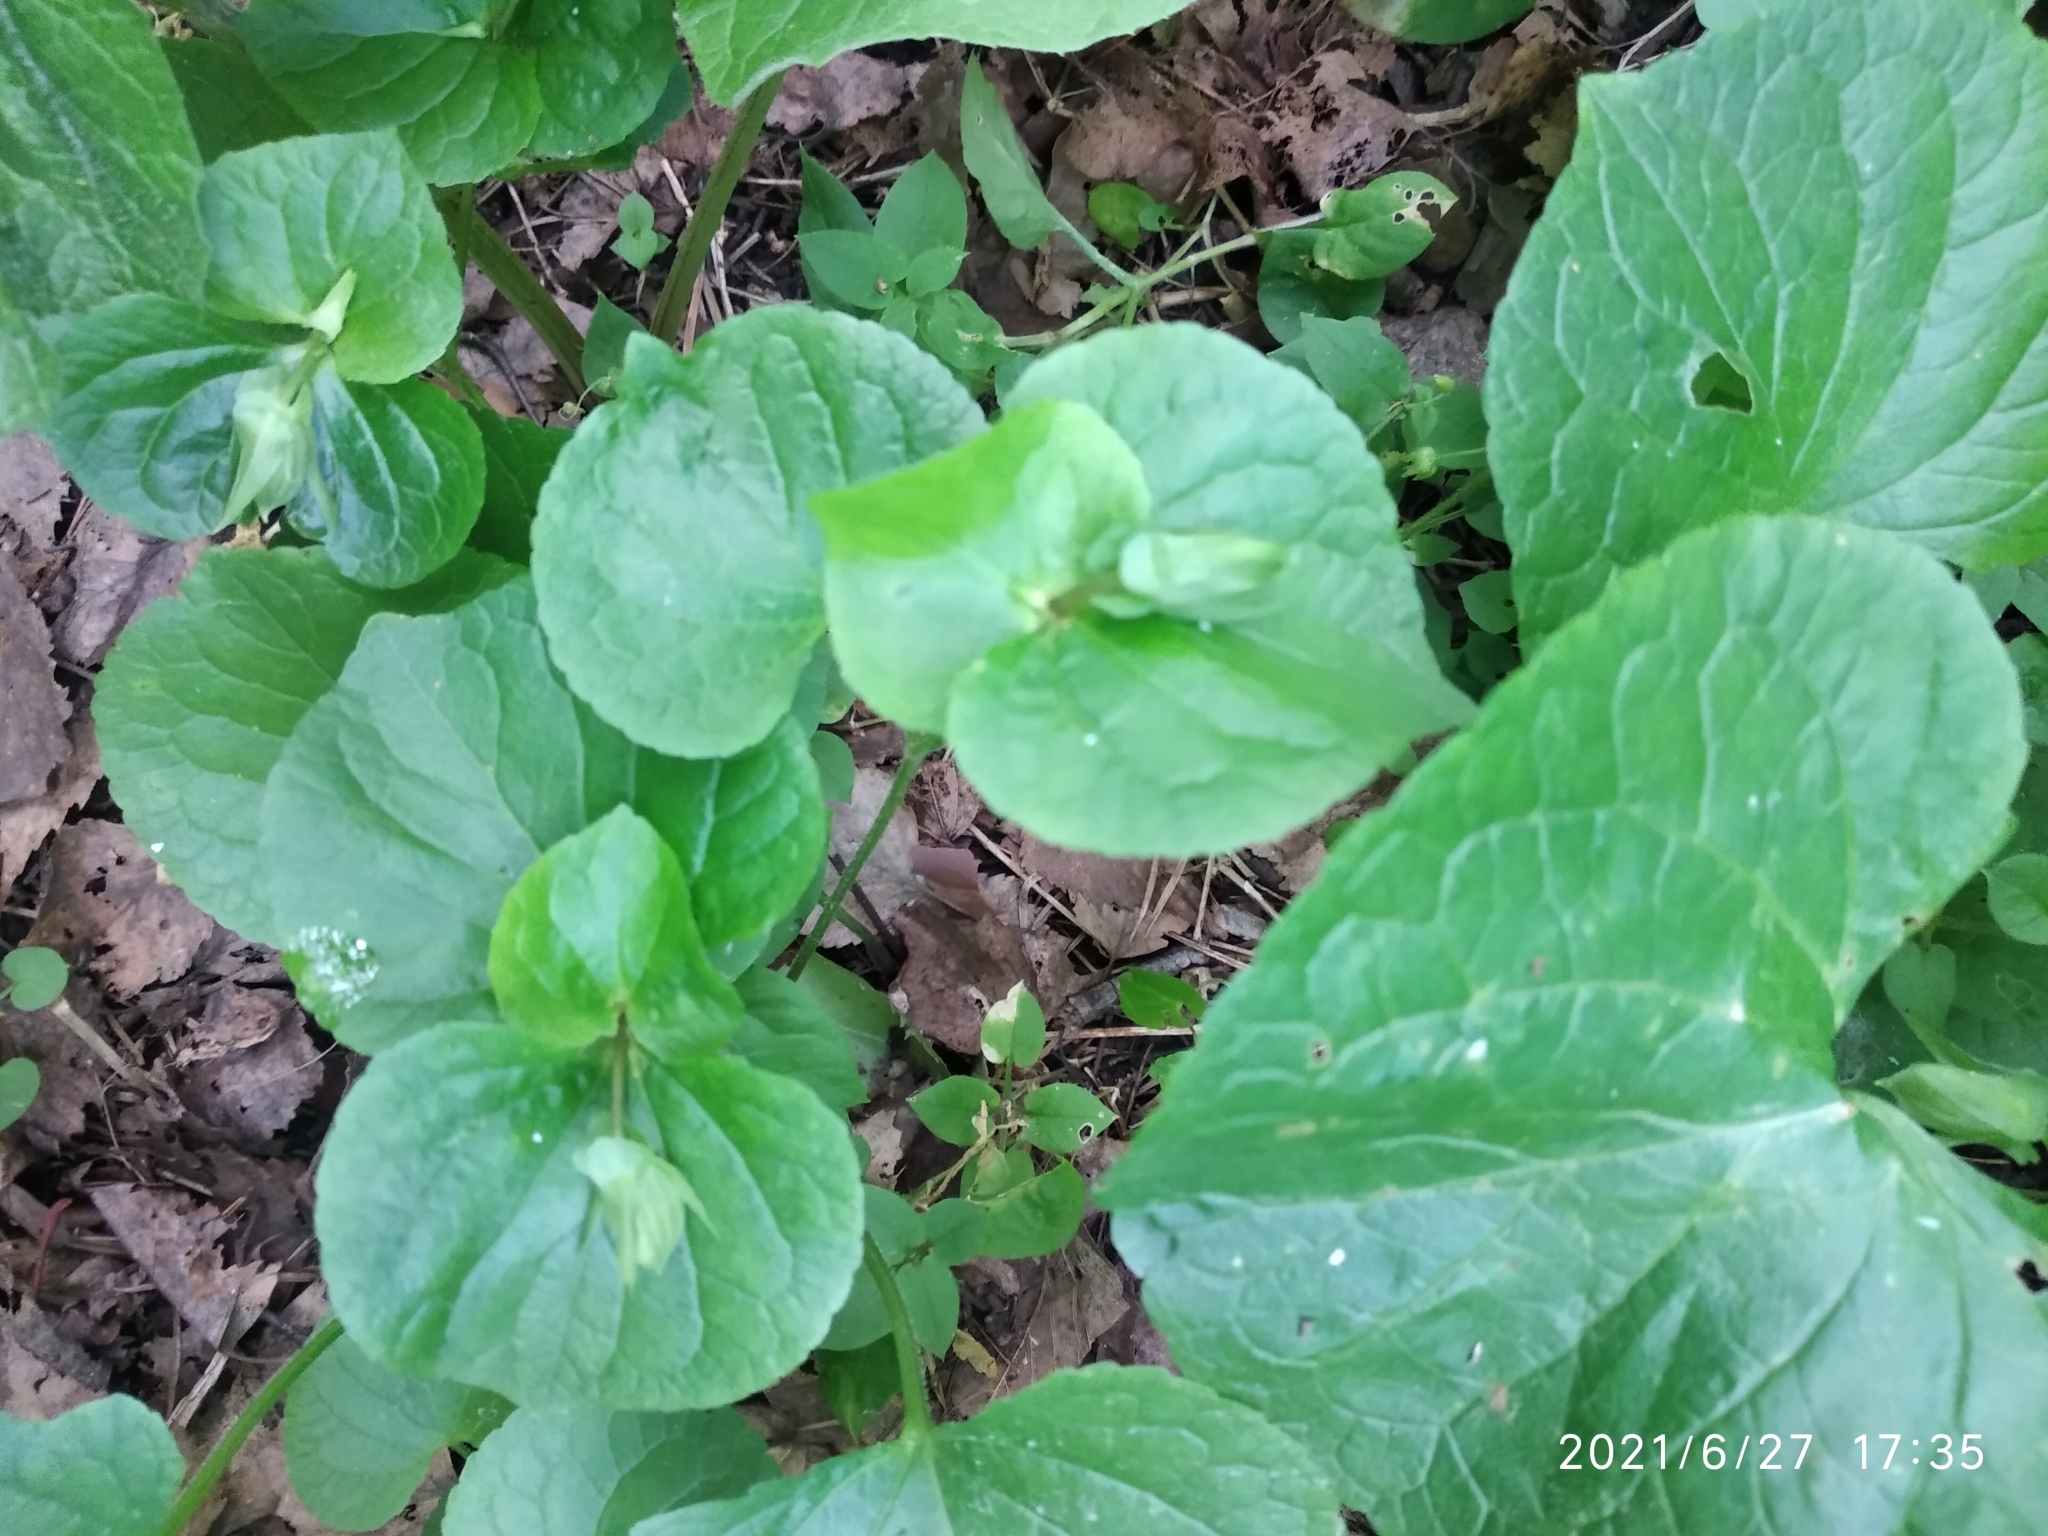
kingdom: Plantae
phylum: Tracheophyta
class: Magnoliopsida
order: Malpighiales
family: Violaceae
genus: Viola
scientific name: Viola mirabilis
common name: Wonder violet
